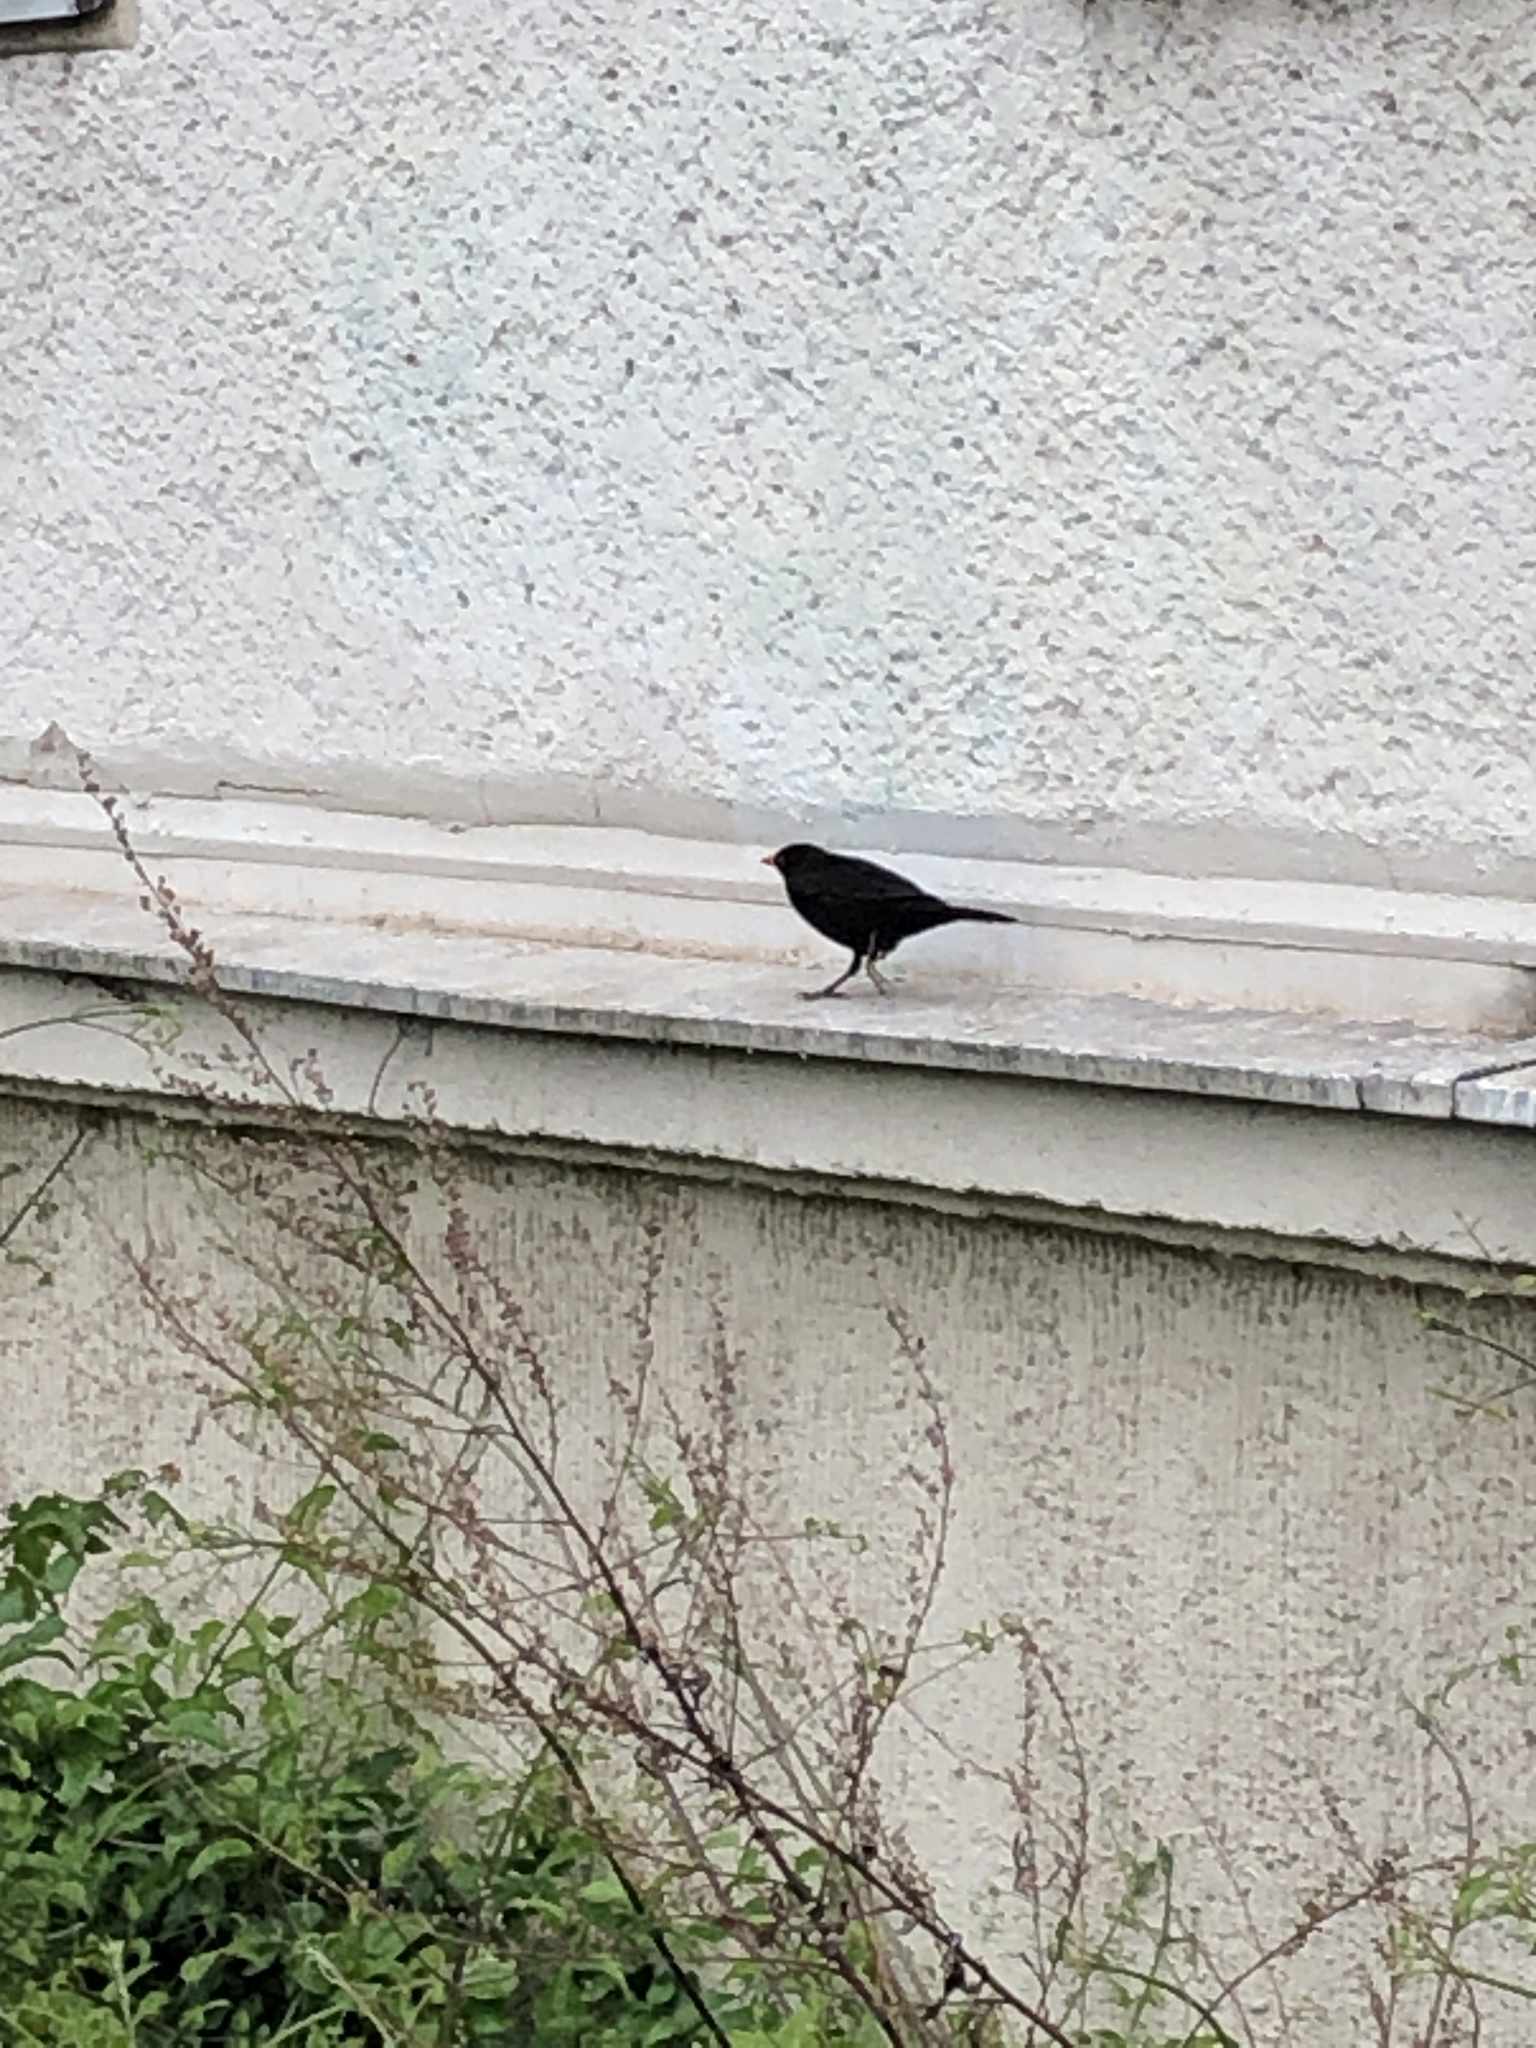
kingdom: Animalia
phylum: Chordata
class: Aves
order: Passeriformes
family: Turdidae
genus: Turdus
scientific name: Turdus merula
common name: Common blackbird
